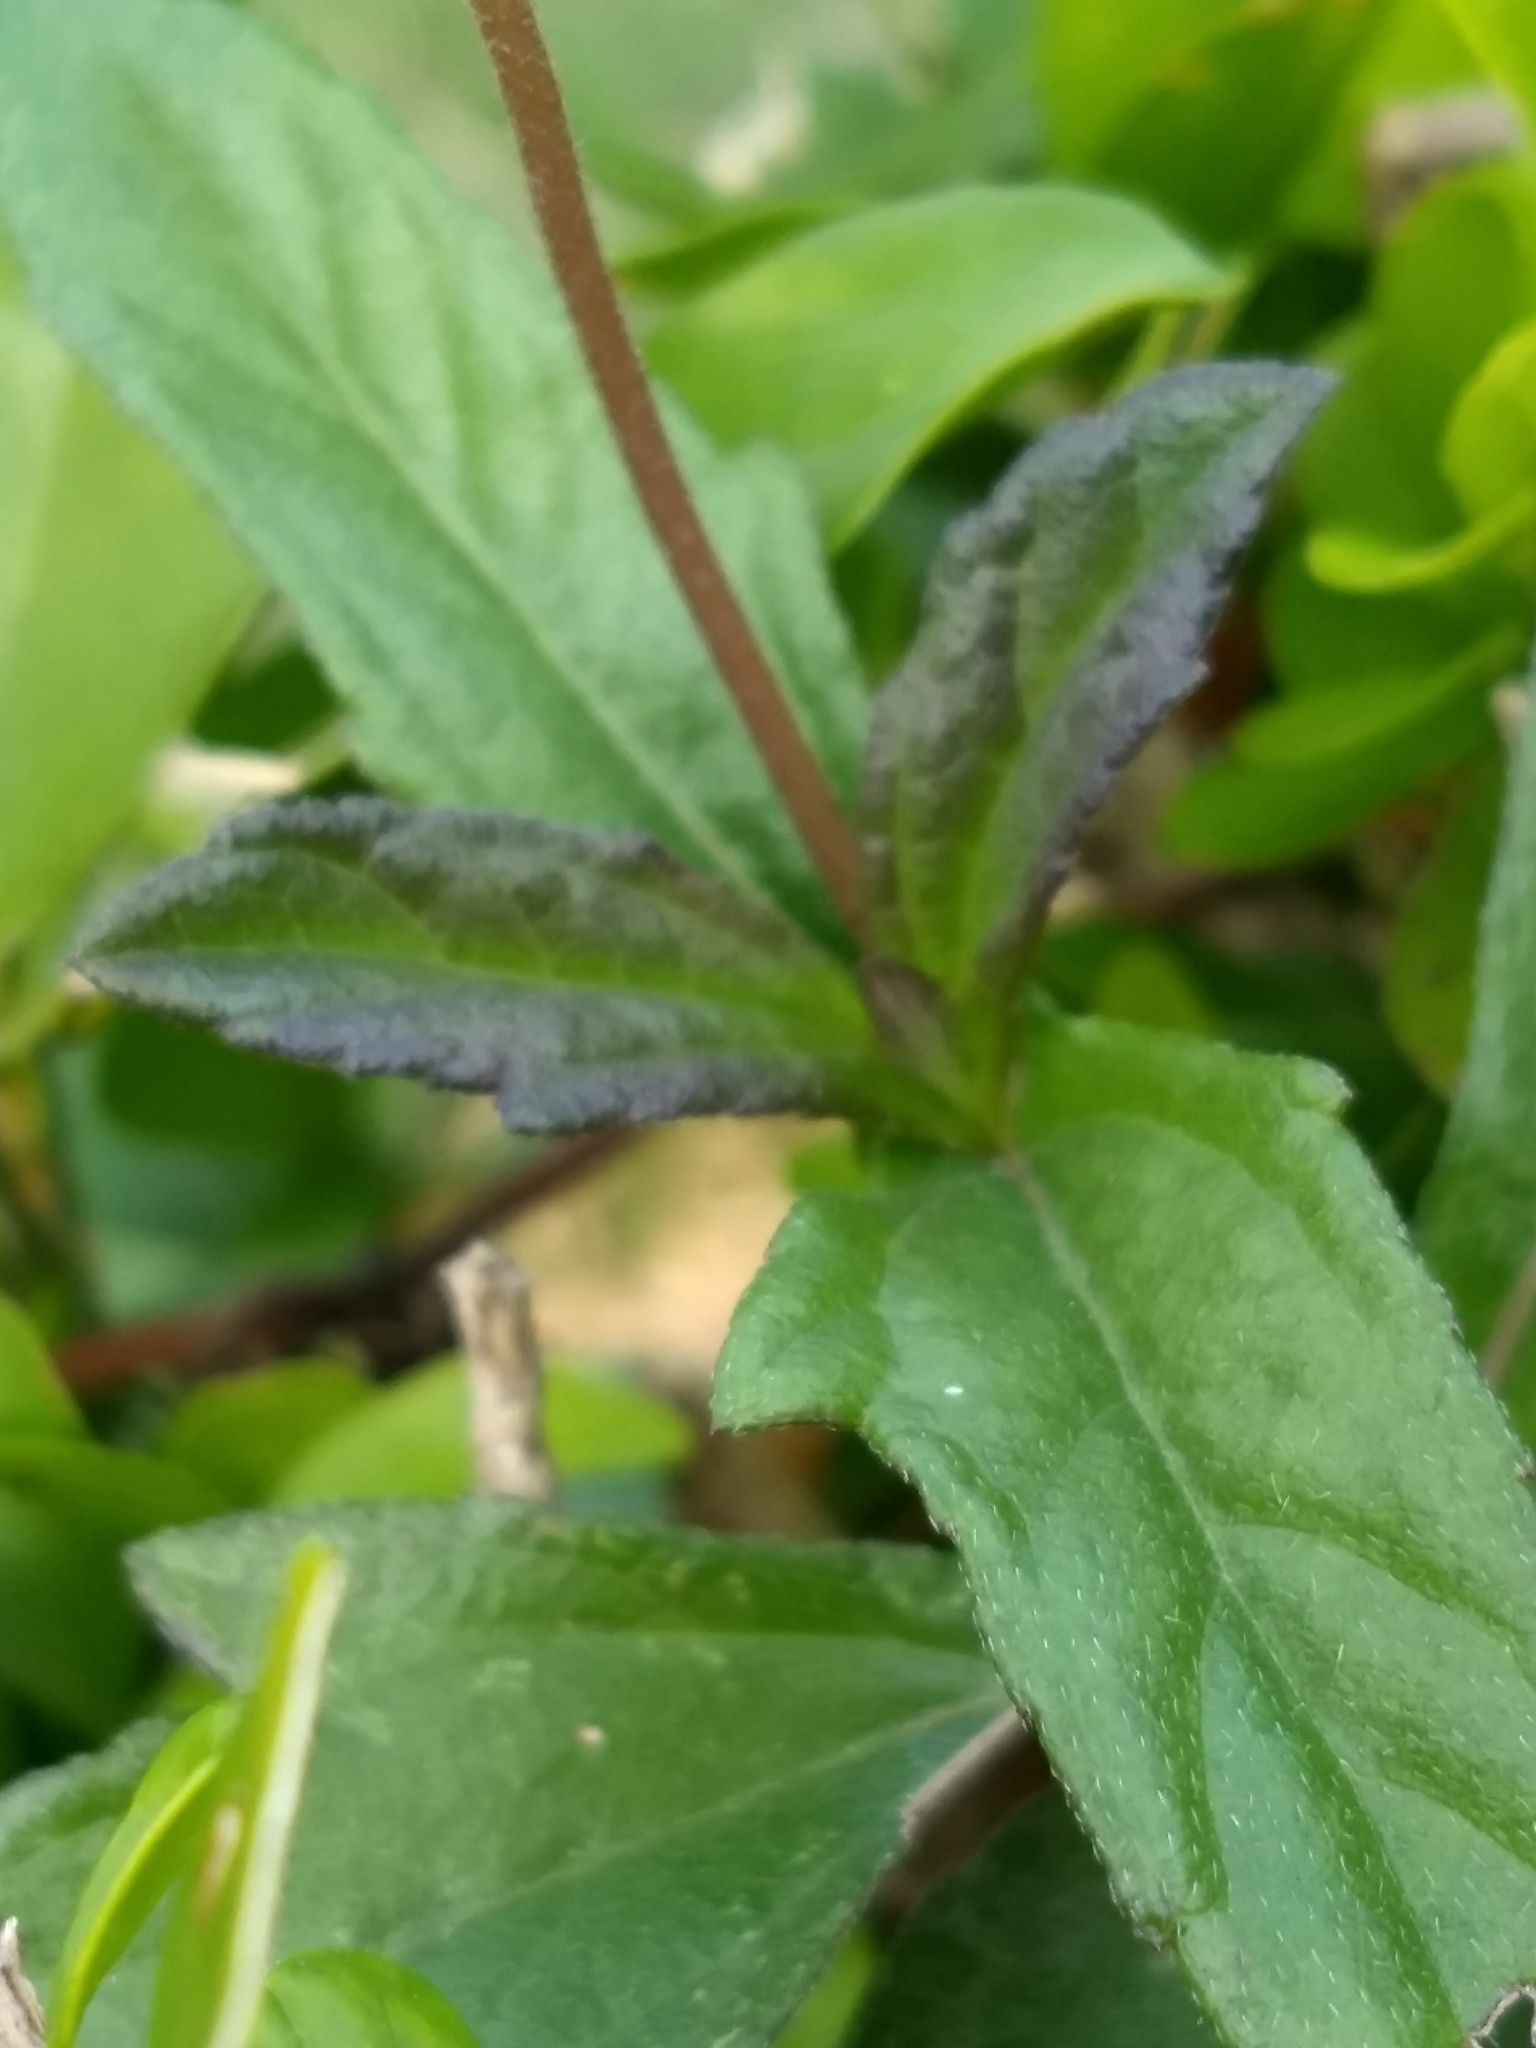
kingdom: Plantae
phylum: Tracheophyta
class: Magnoliopsida
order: Asterales
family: Asteraceae
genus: Sphagneticola
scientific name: Sphagneticola trilobata
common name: Bay biscayne creeping-oxeye
